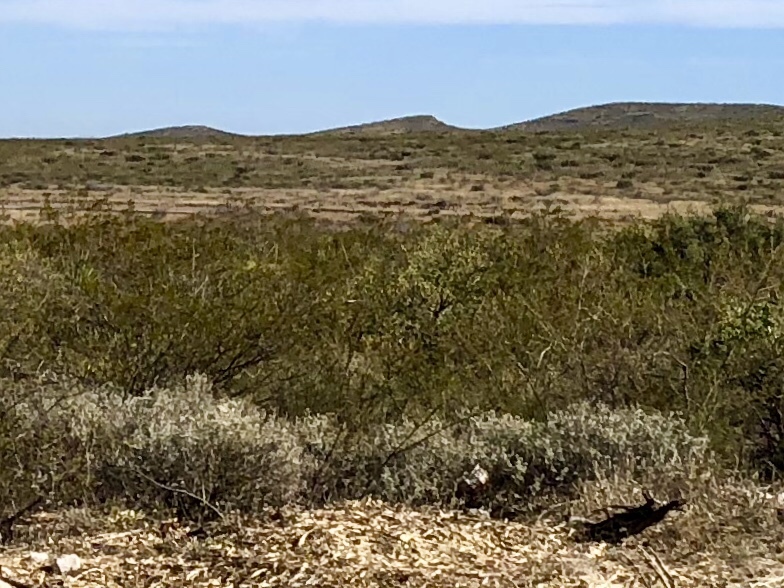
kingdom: Plantae
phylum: Tracheophyta
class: Magnoliopsida
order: Zygophyllales
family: Zygophyllaceae
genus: Larrea
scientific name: Larrea tridentata
